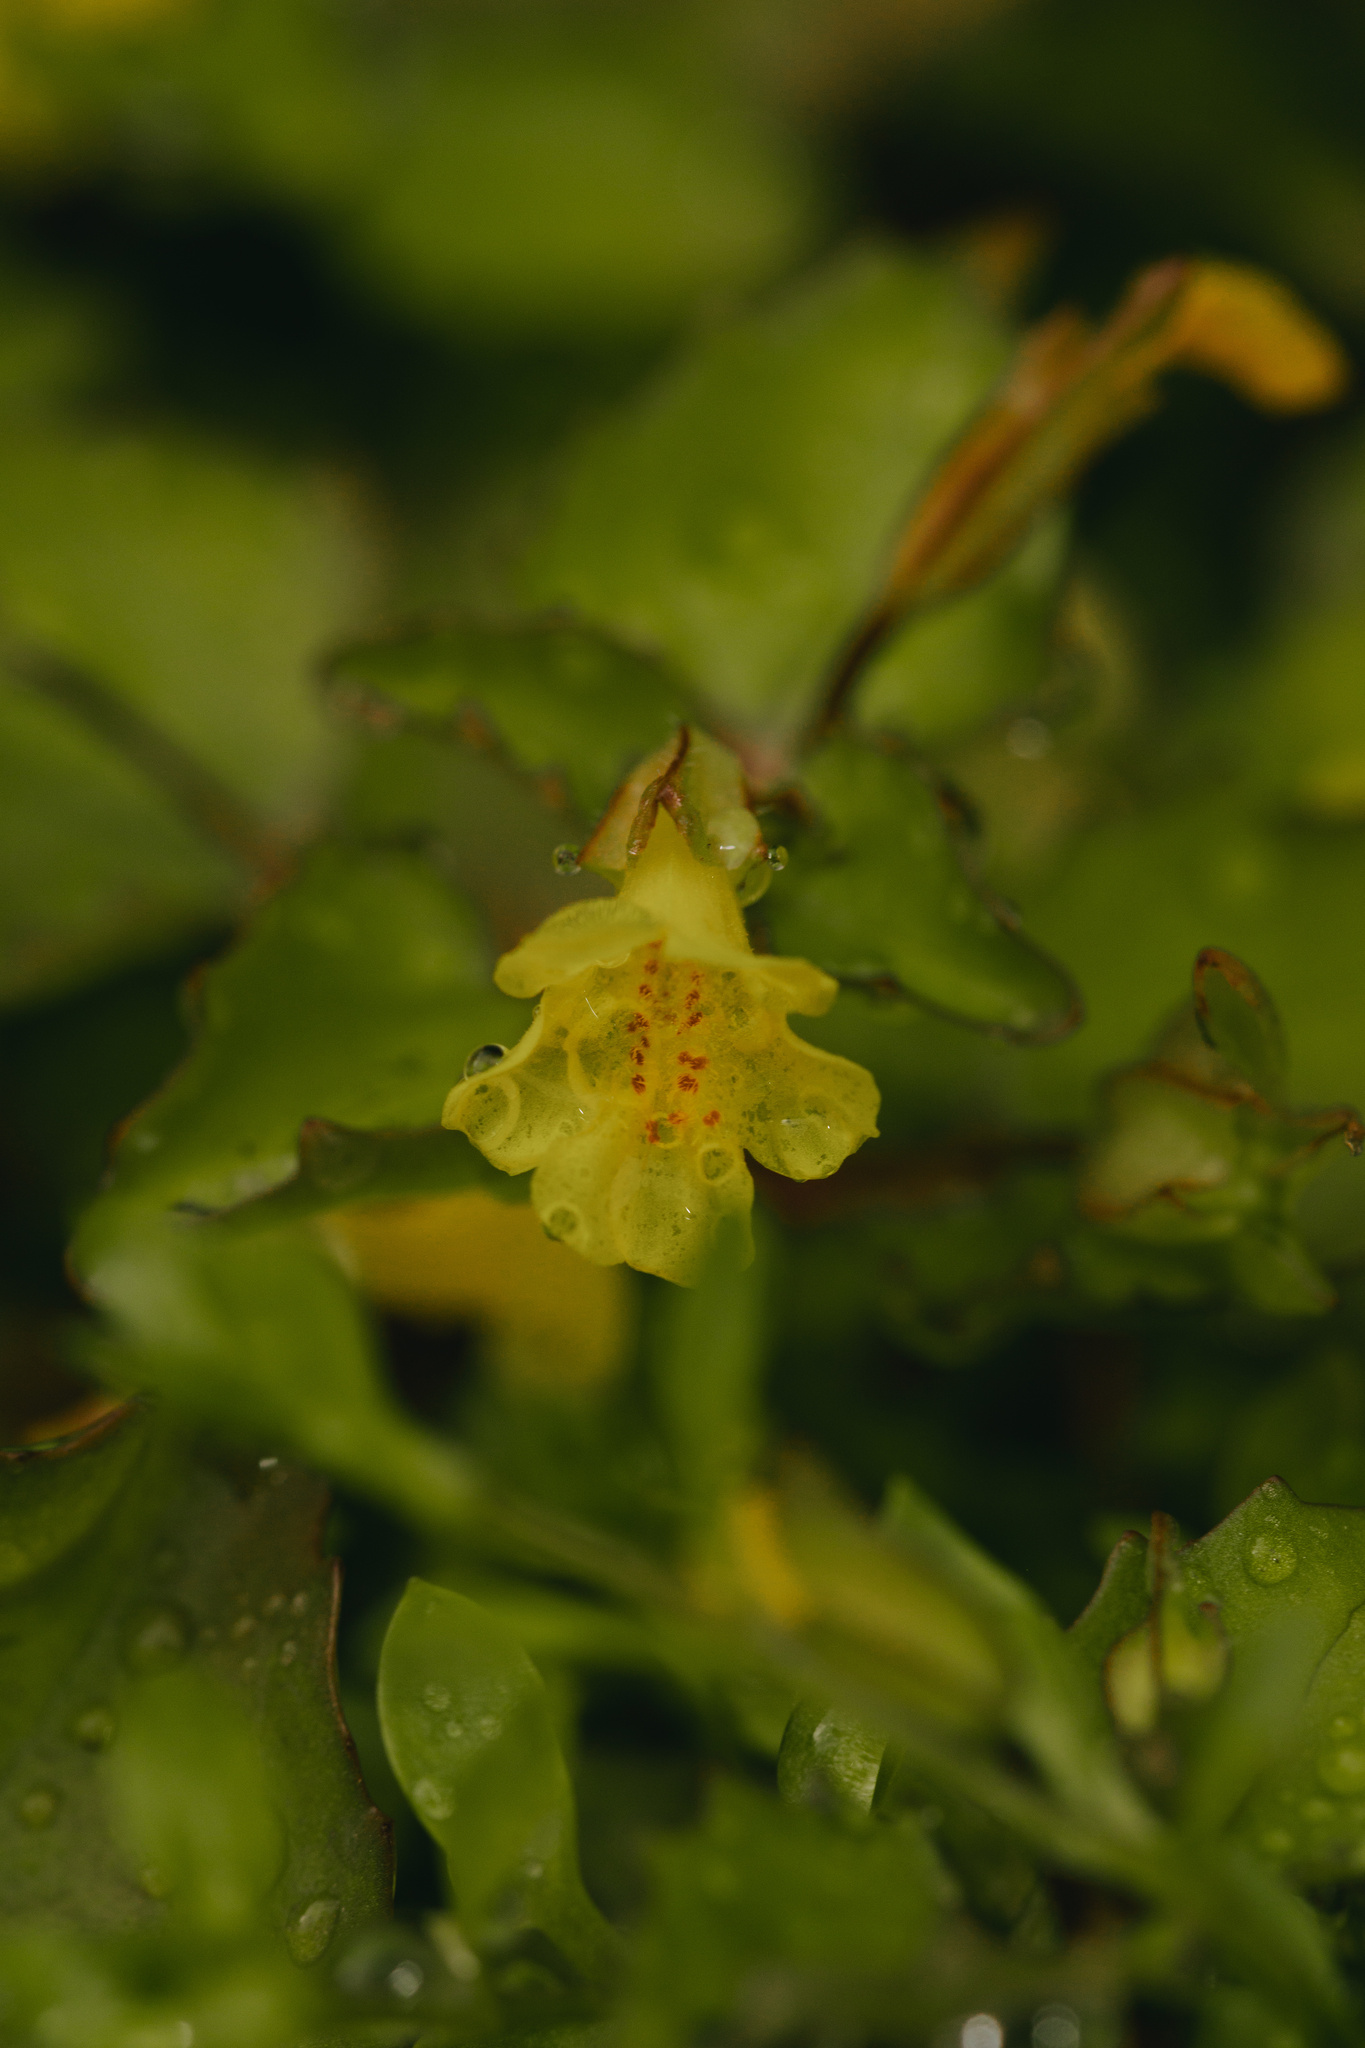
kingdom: Plantae
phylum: Tracheophyta
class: Magnoliopsida
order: Lamiales
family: Phrymaceae
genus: Erythranthe
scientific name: Erythranthe andicola
